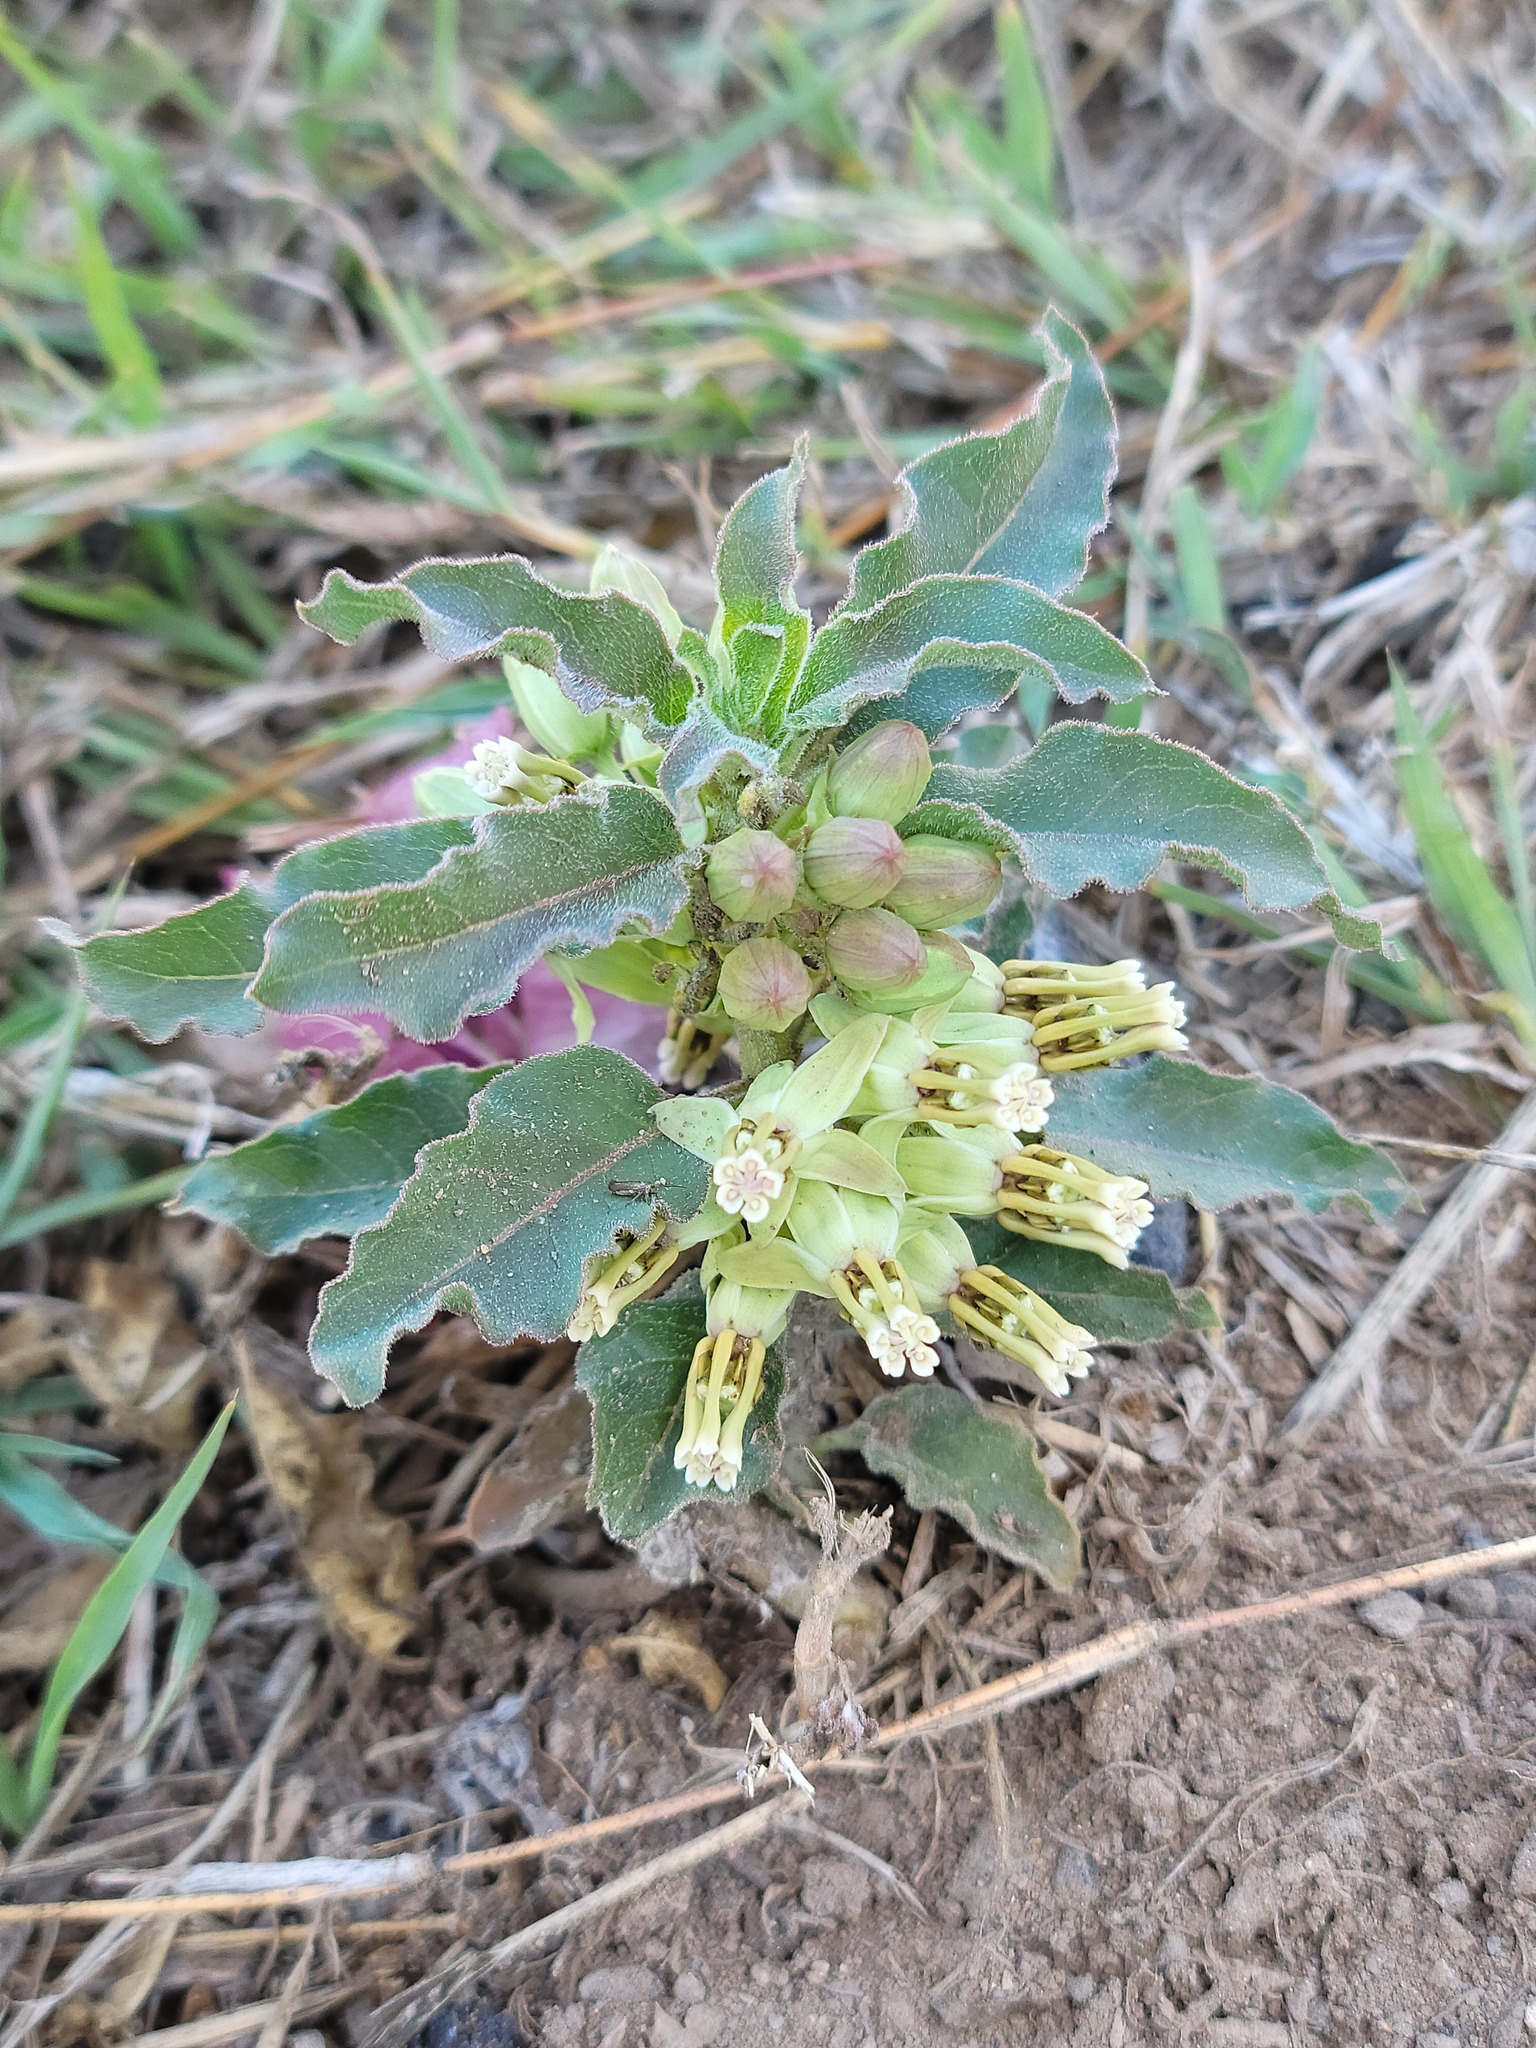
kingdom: Plantae
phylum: Tracheophyta
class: Magnoliopsida
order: Gentianales
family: Apocynaceae
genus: Asclepias
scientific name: Asclepias oenotheroides
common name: Zizotes milkweed
